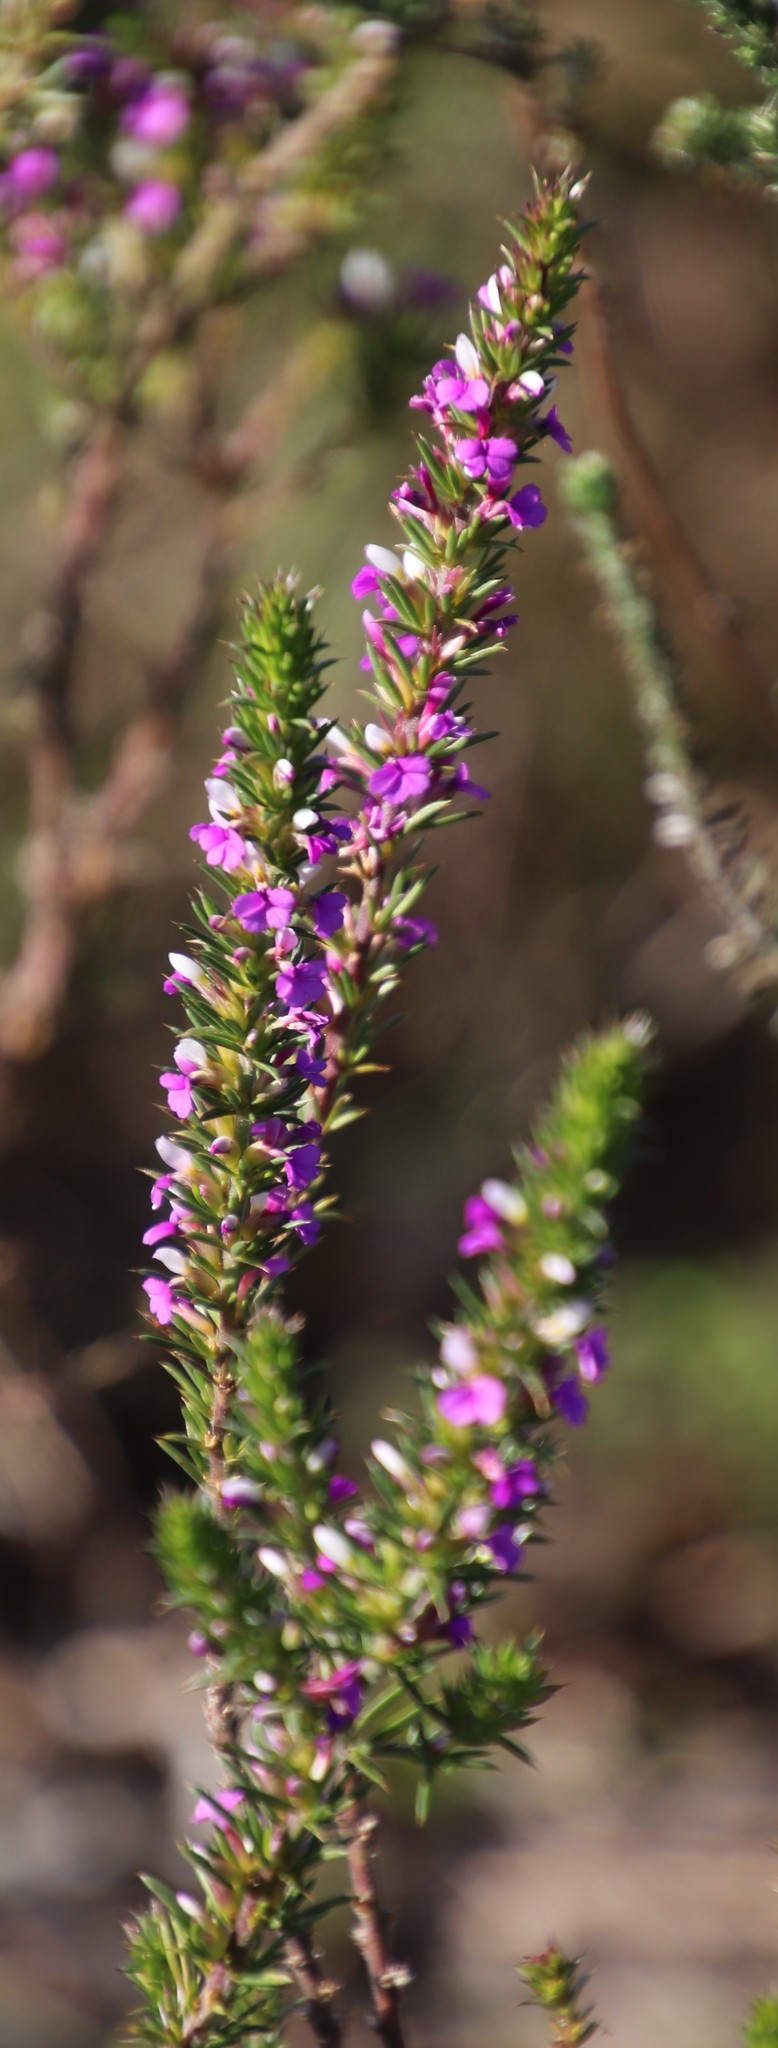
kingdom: Plantae
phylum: Tracheophyta
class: Magnoliopsida
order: Fabales
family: Polygalaceae
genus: Muraltia
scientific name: Muraltia heisteria
